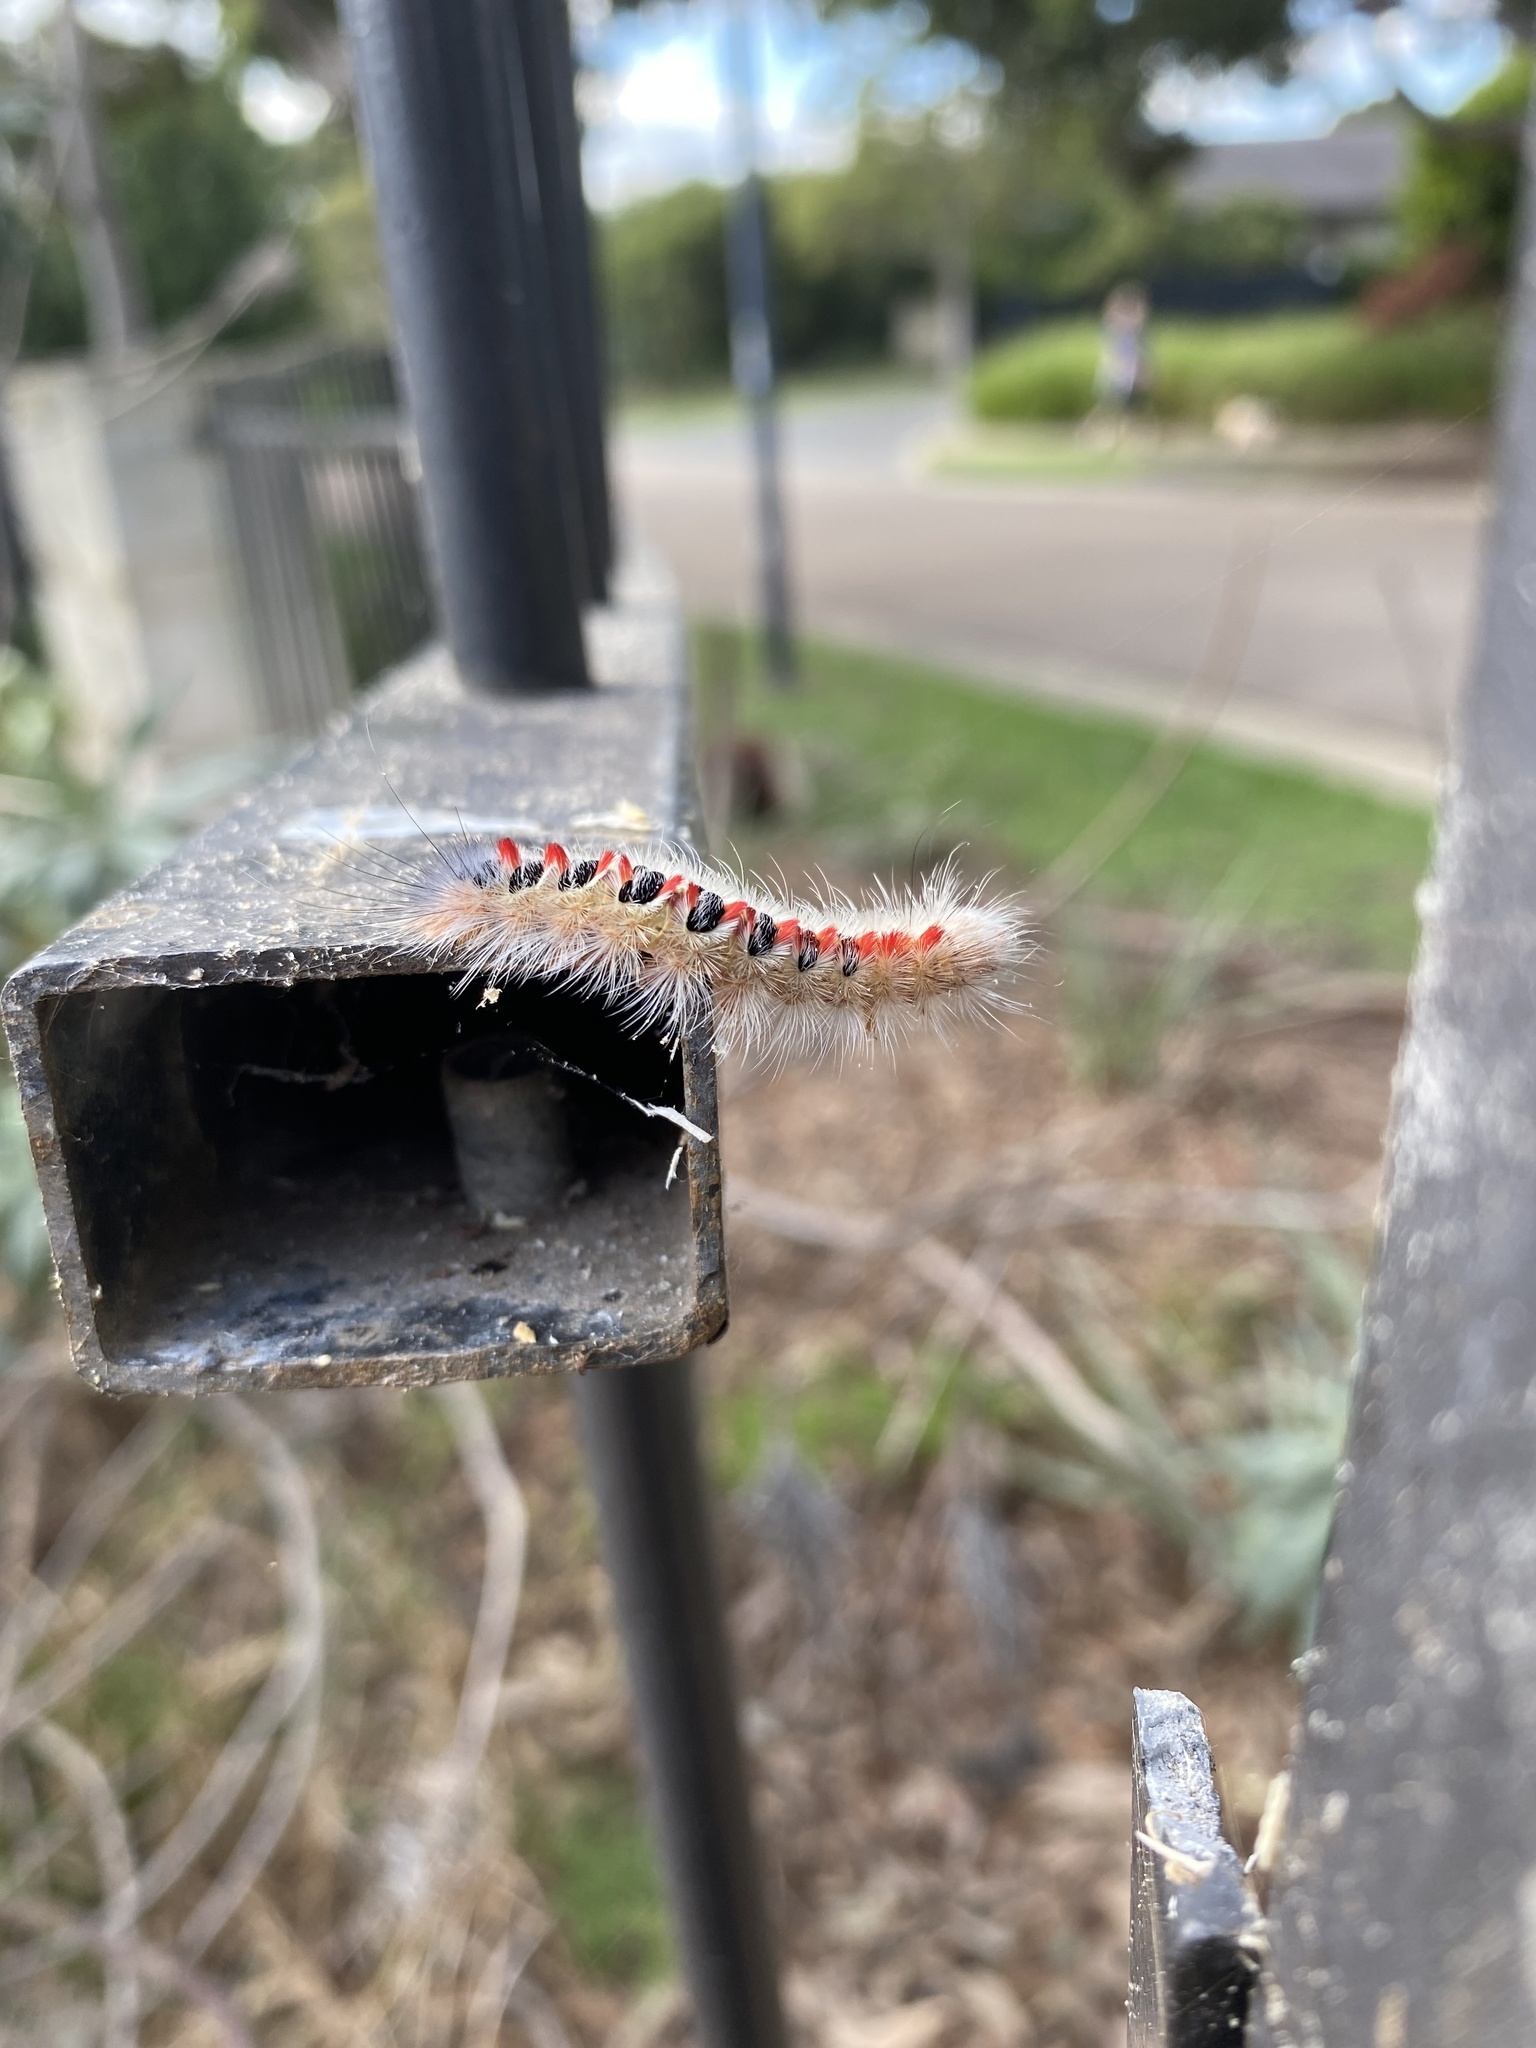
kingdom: Animalia
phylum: Arthropoda
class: Insecta
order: Lepidoptera
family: Notodontidae
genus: Trichiocercus
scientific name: Trichiocercus sparshalli
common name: Long-tailed satin
